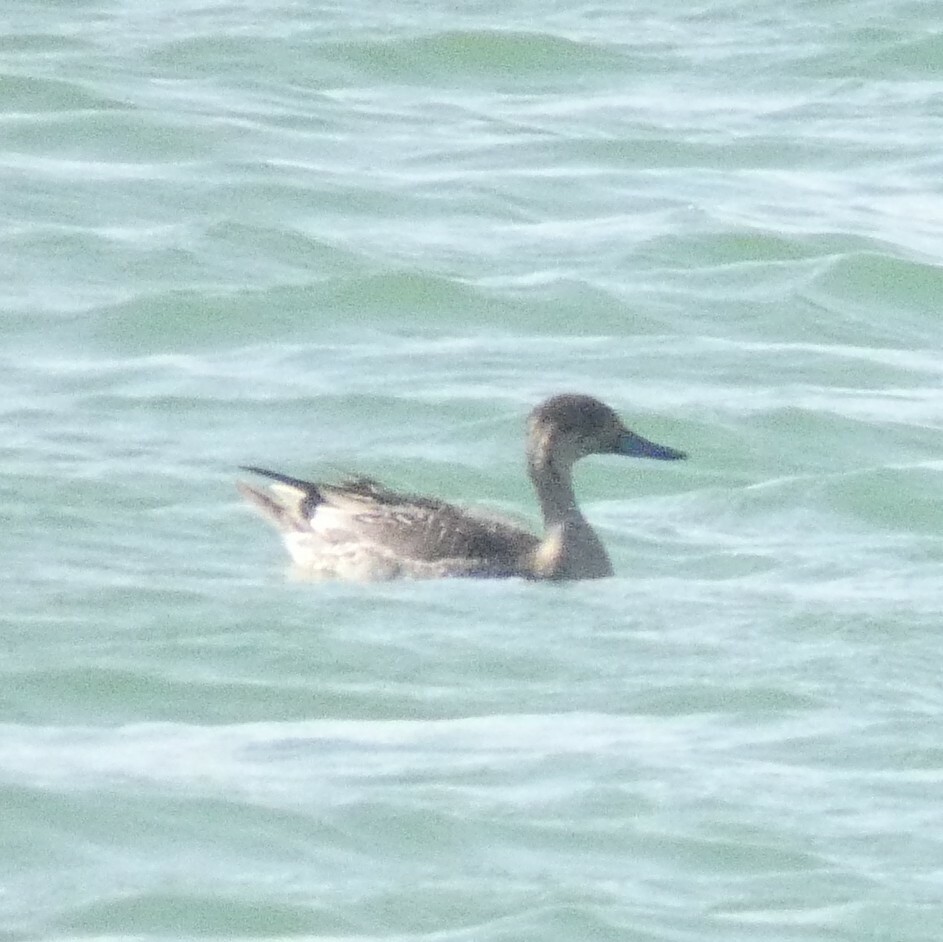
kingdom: Animalia
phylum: Chordata
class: Aves
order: Anseriformes
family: Anatidae
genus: Anas
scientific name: Anas acuta
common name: Northern pintail
